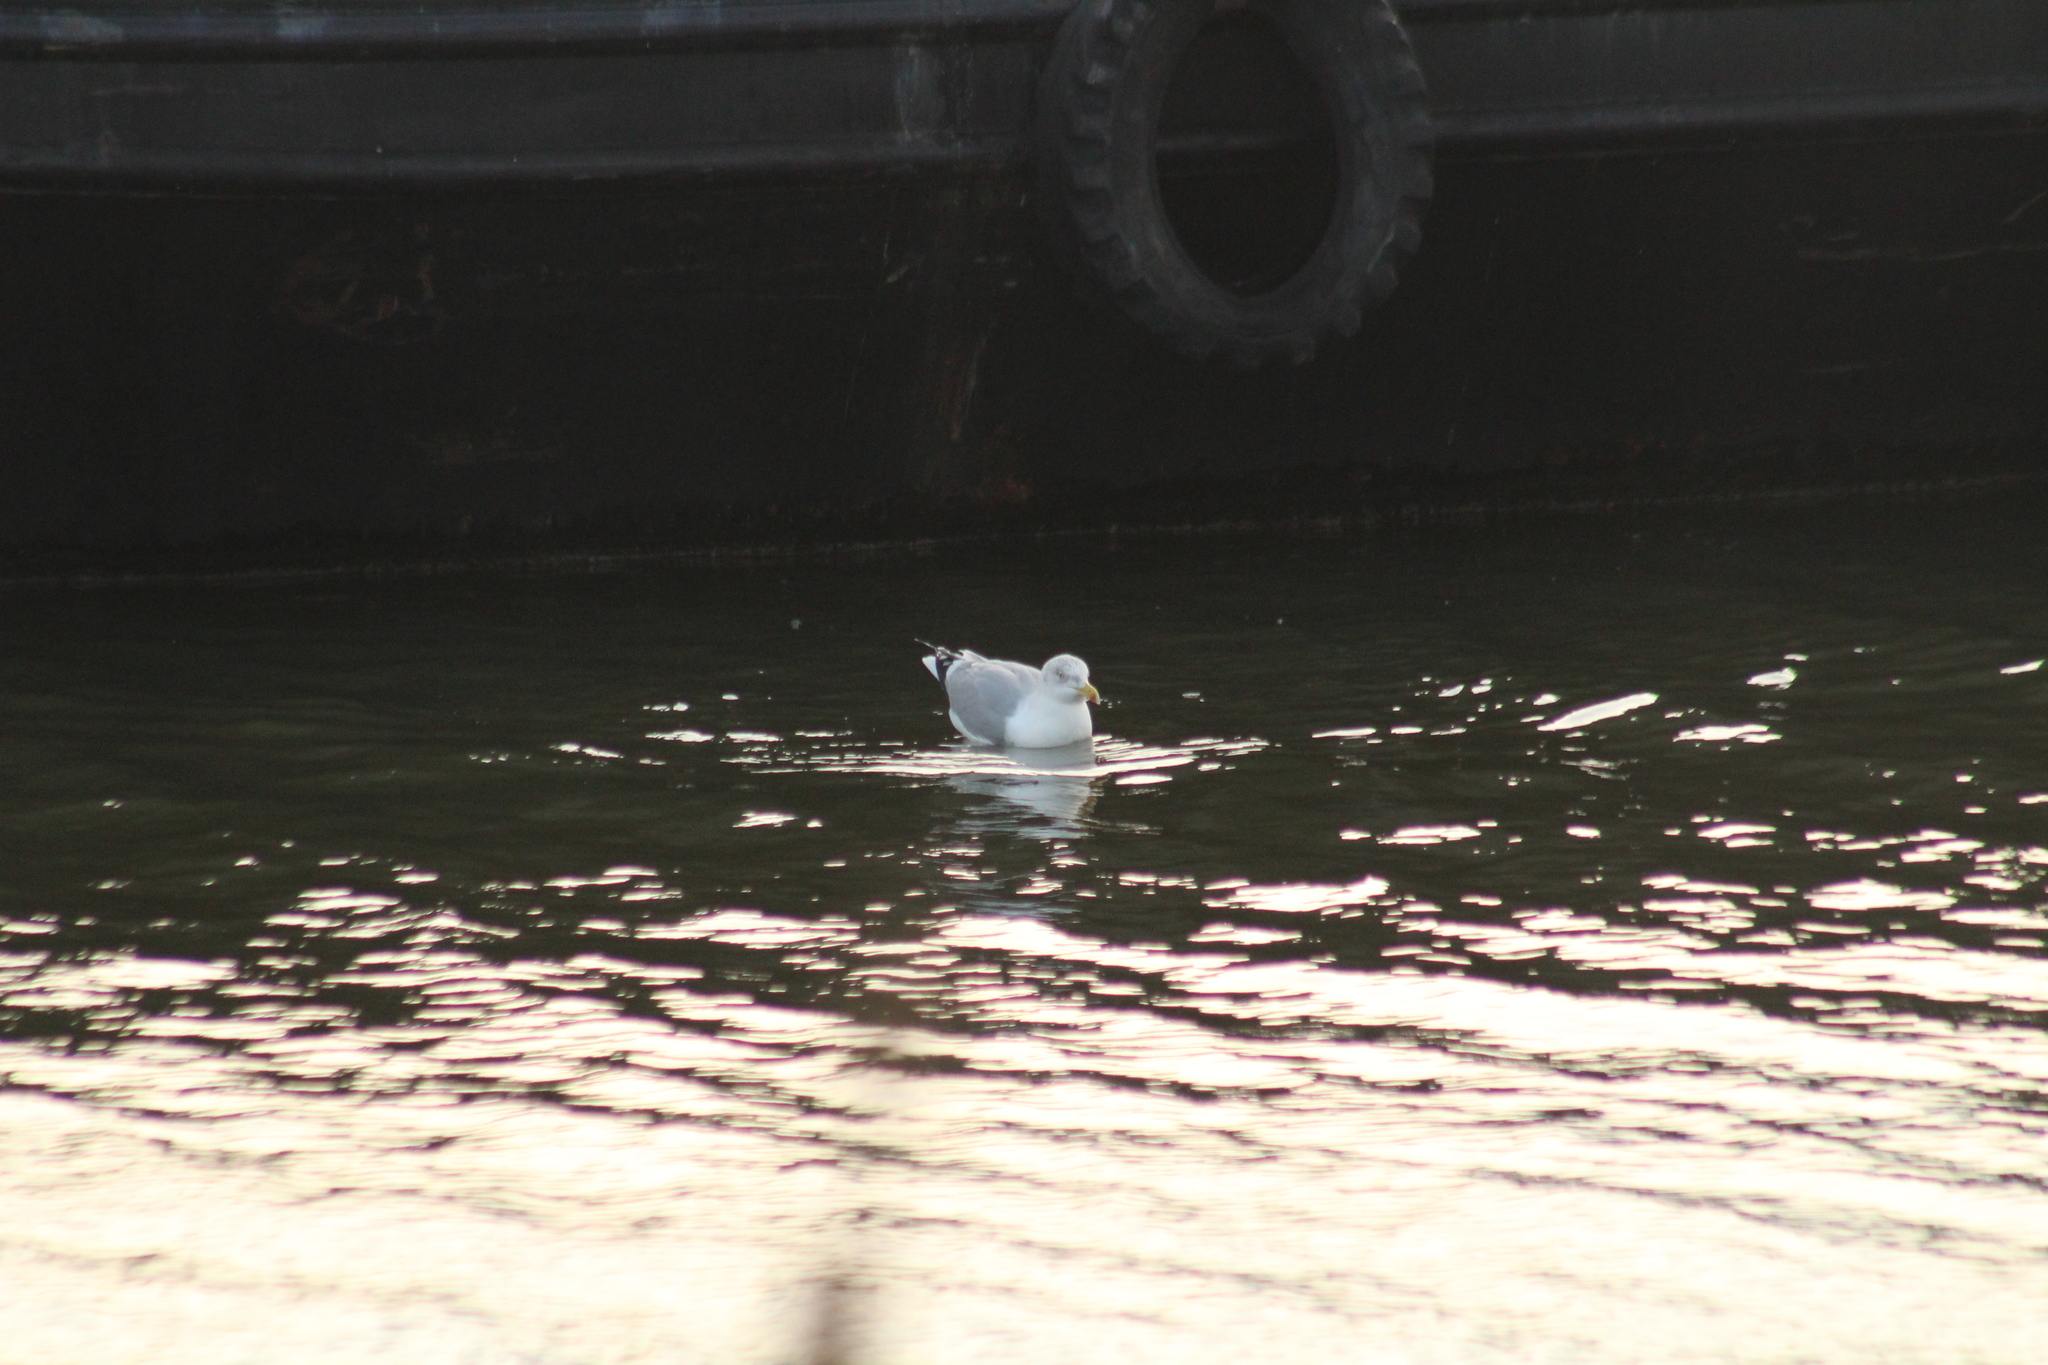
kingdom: Animalia
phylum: Chordata
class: Aves
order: Charadriiformes
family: Laridae
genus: Larus
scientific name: Larus argentatus
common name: Herring gull
